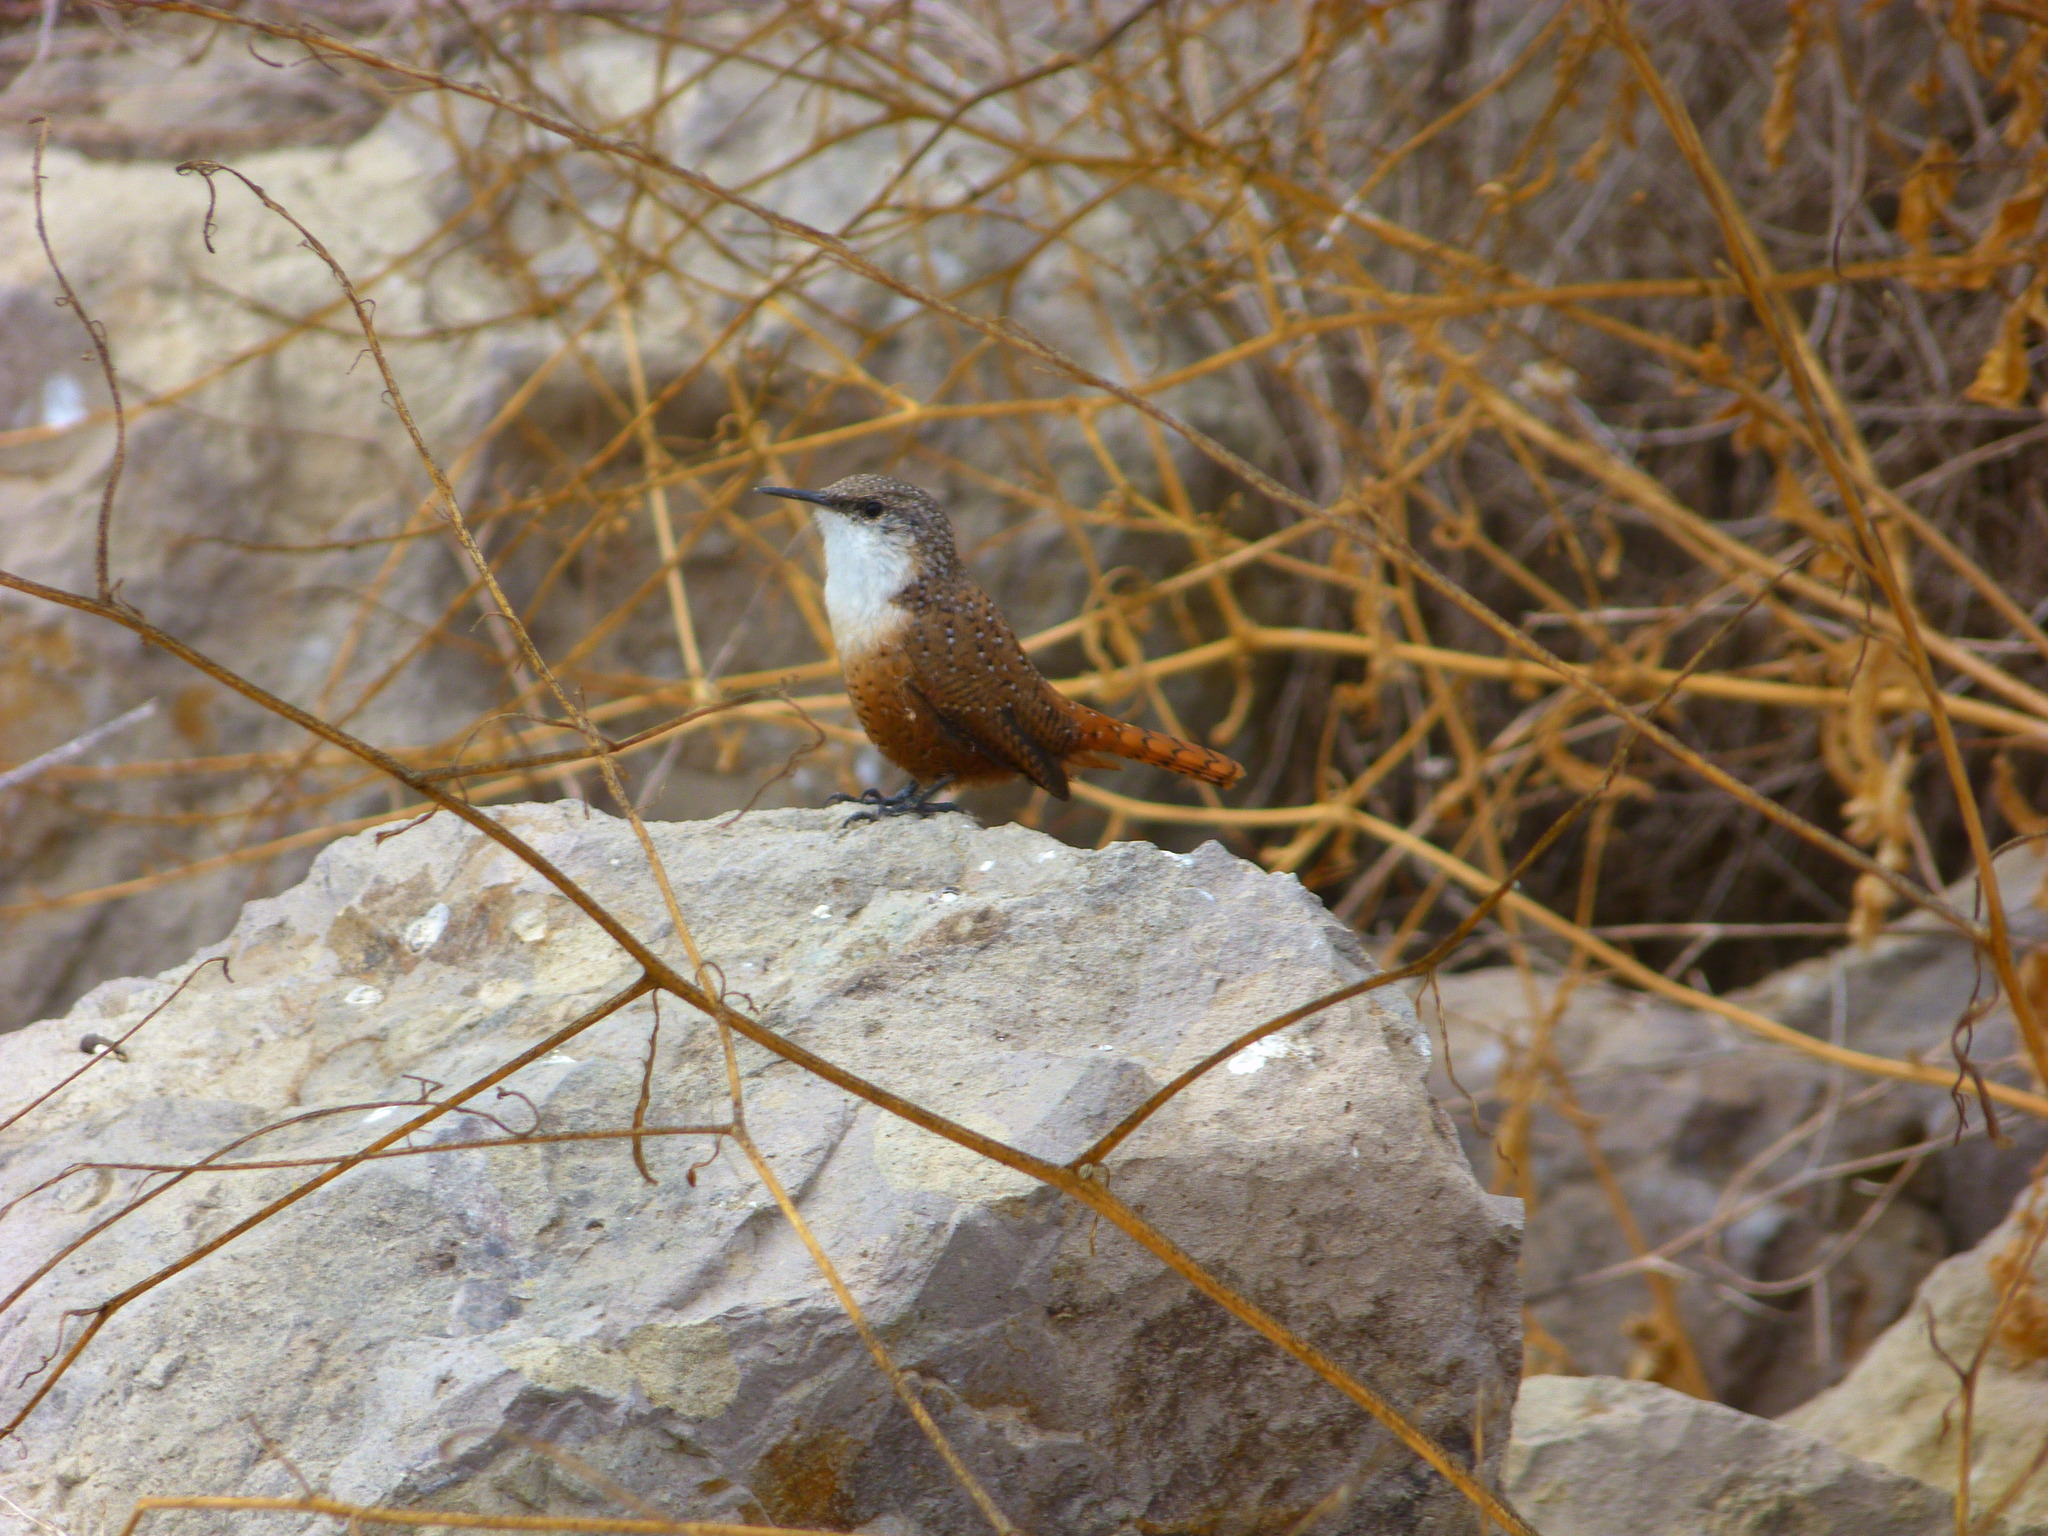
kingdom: Animalia
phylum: Chordata
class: Aves
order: Passeriformes
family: Troglodytidae
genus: Catherpes
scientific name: Catherpes mexicanus
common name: Canyon wren
